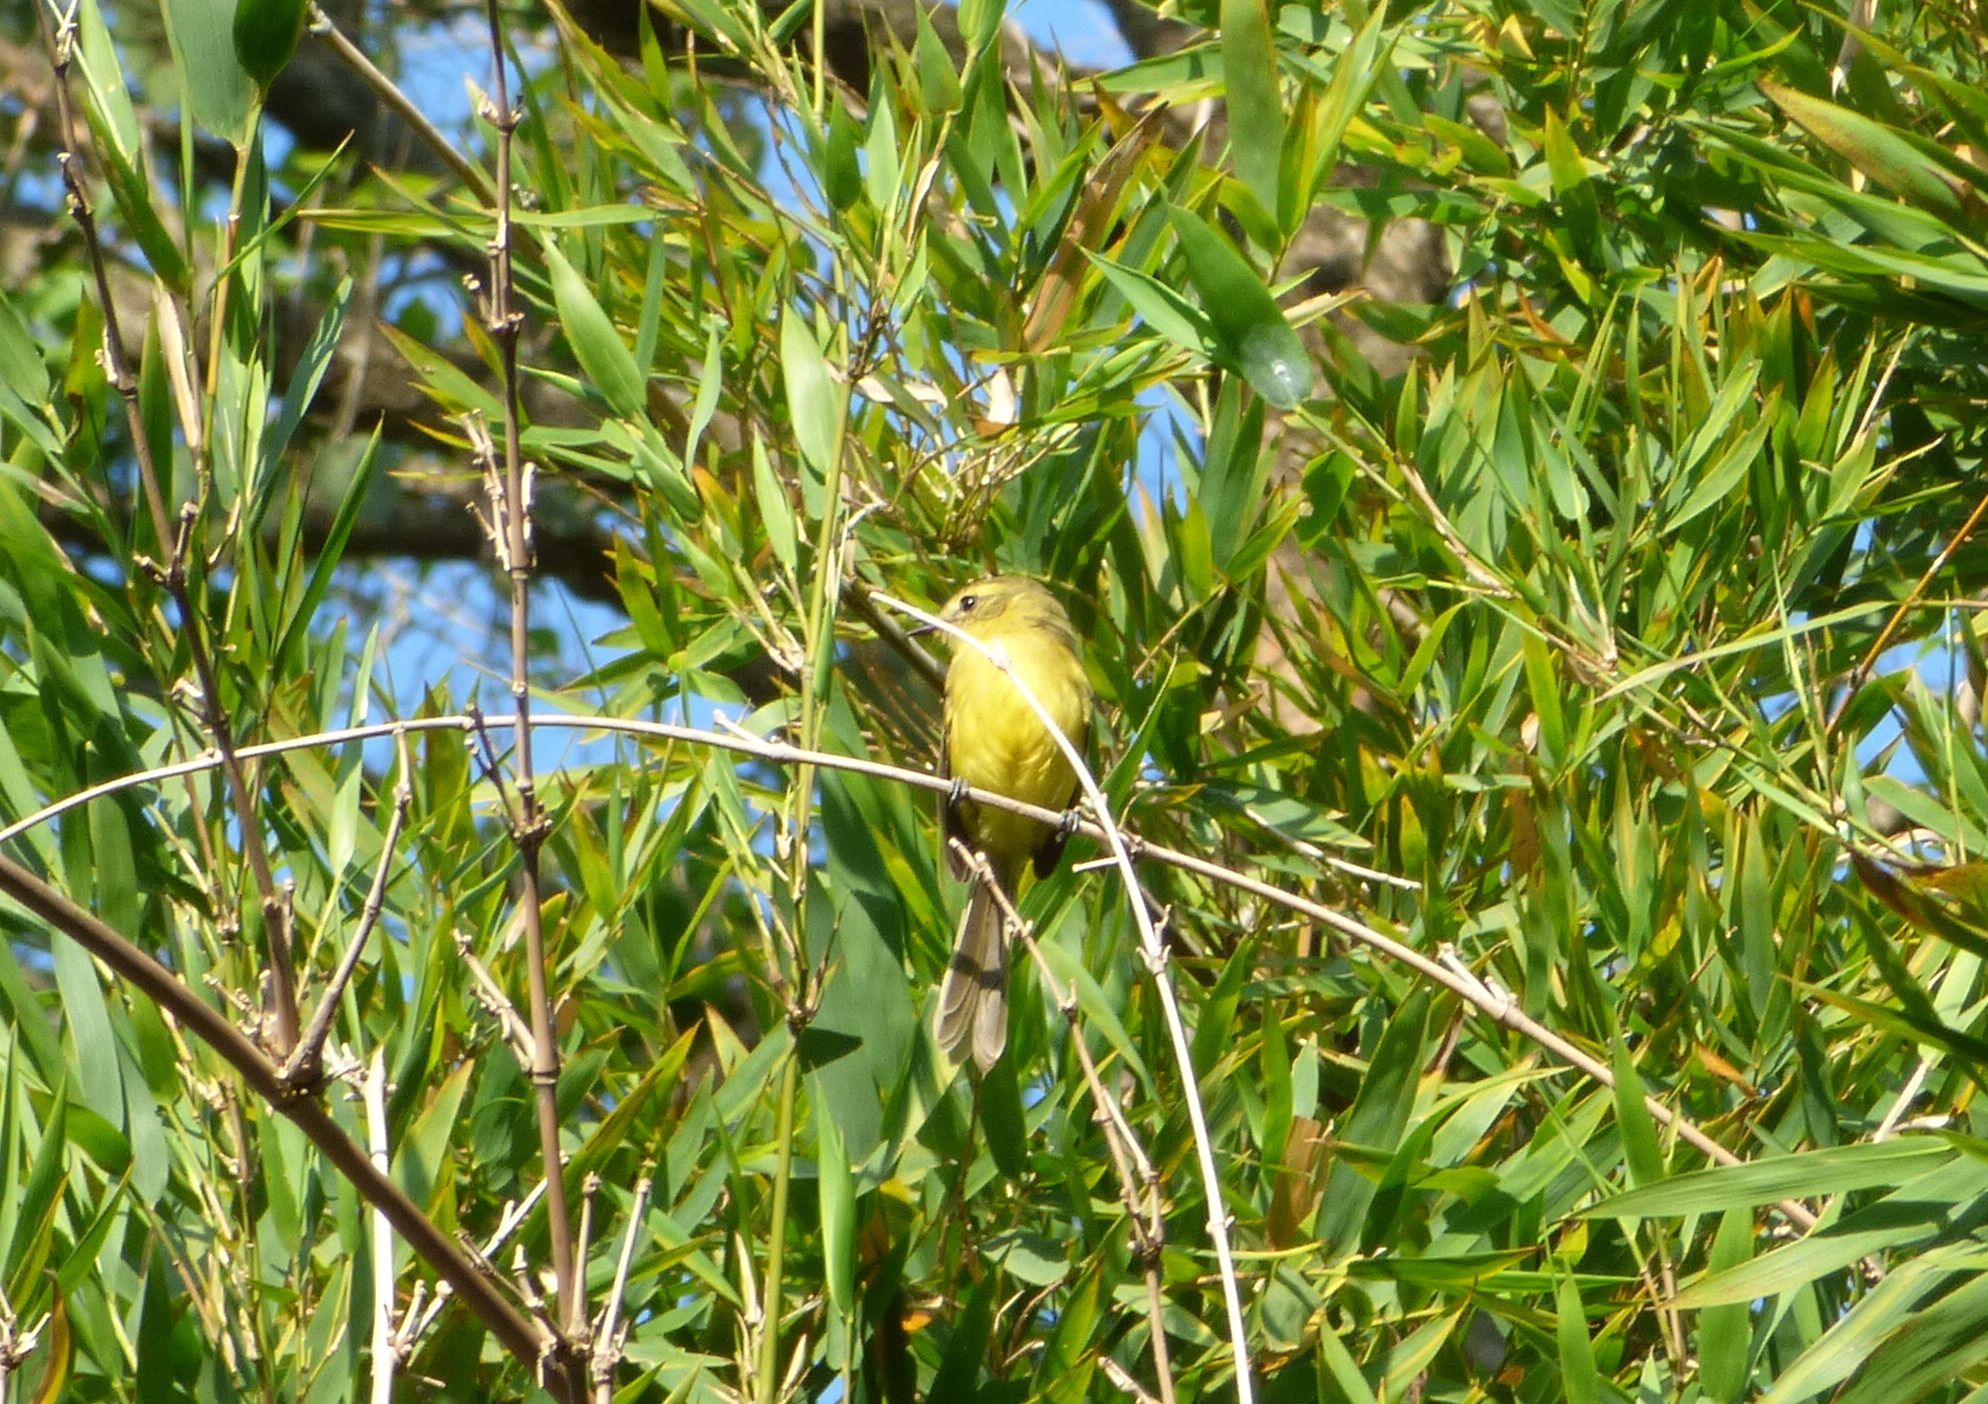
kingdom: Animalia
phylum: Chordata
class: Aves
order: Passeriformes
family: Tyrannidae
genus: Capsiempis
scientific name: Capsiempis flaveola
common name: Yellow tyrannulet
